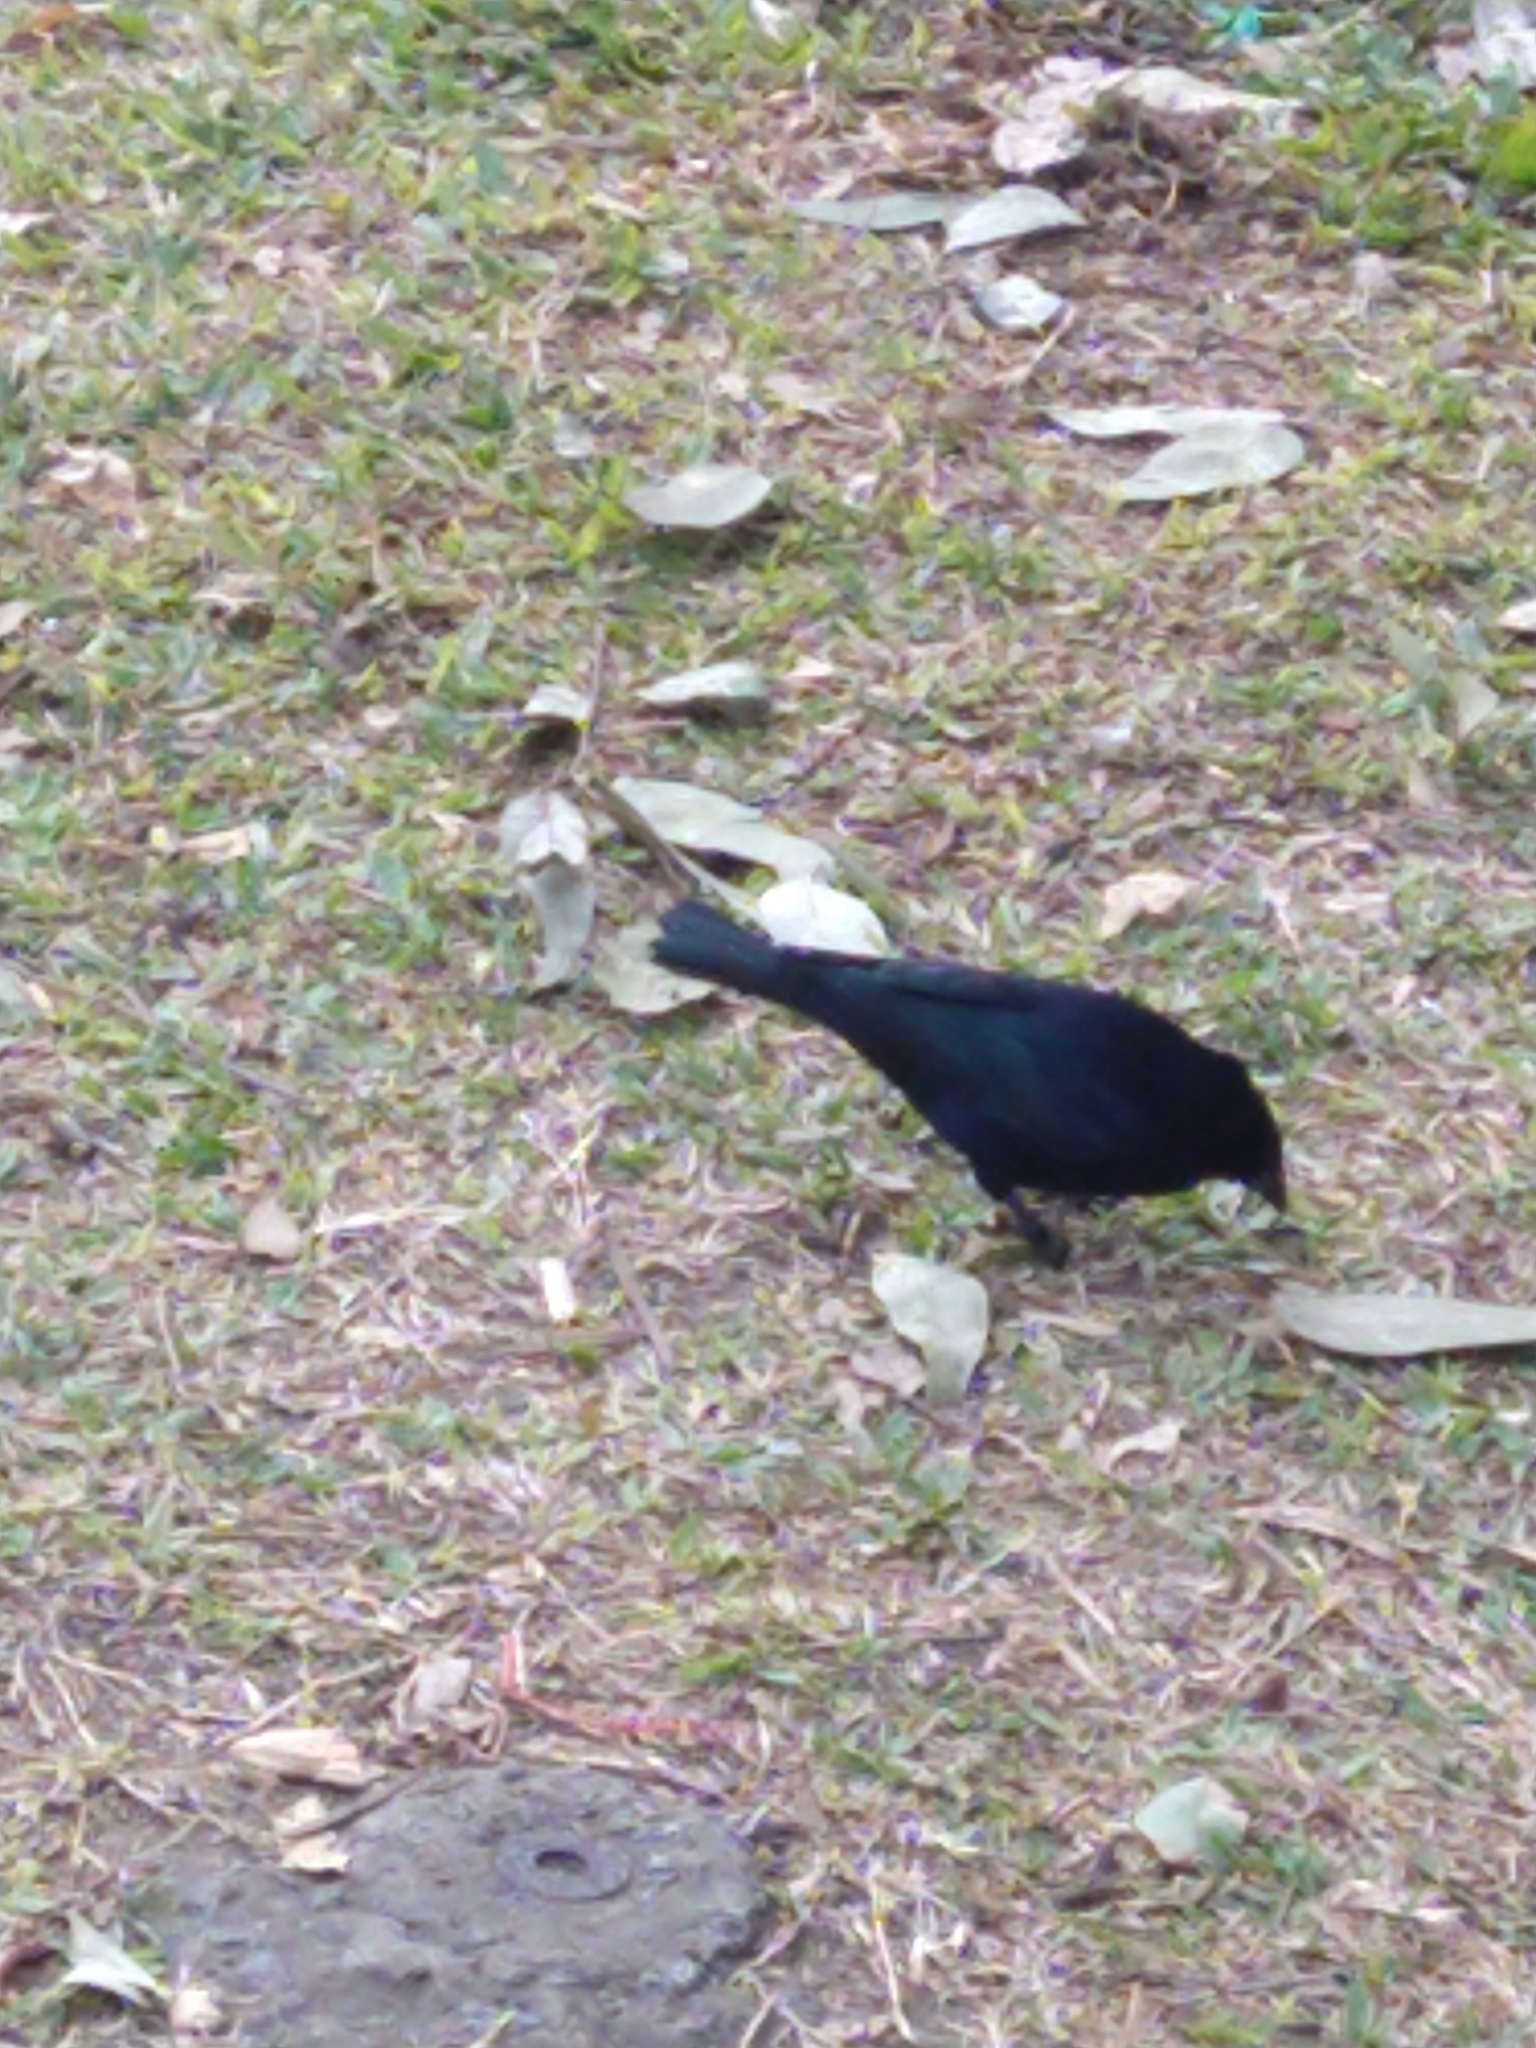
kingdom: Animalia
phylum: Chordata
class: Aves
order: Passeriformes
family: Icteridae
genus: Molothrus
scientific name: Molothrus bonariensis
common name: Shiny cowbird
